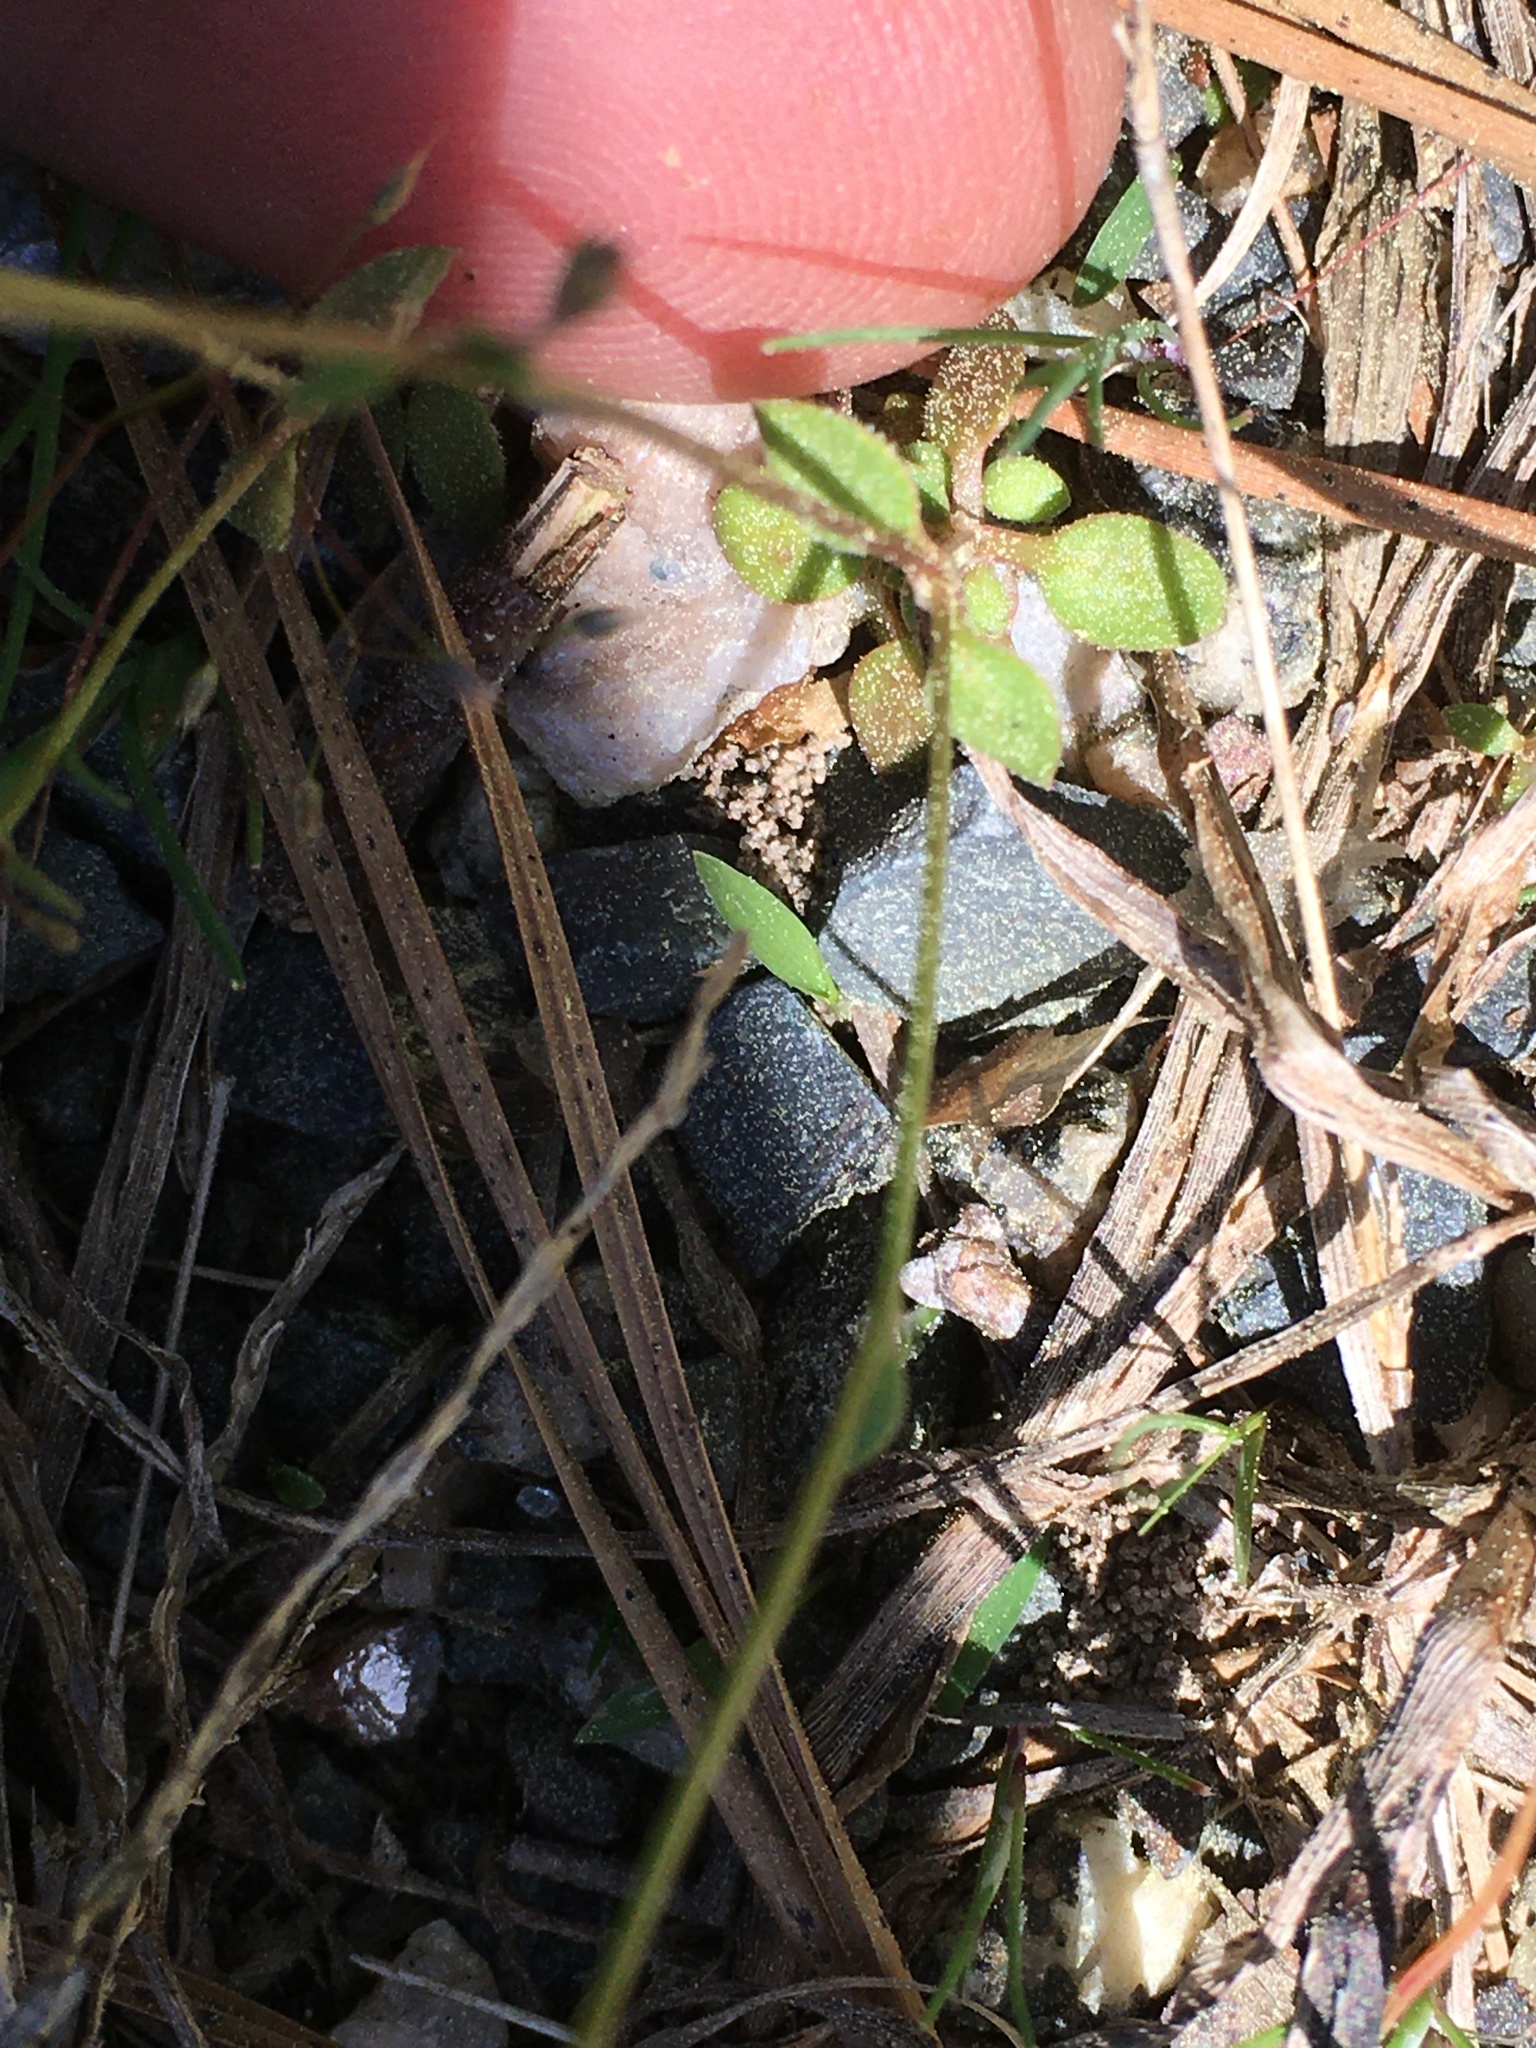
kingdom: Plantae
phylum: Tracheophyta
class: Magnoliopsida
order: Gentianales
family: Rubiaceae
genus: Houstonia
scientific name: Houstonia pusilla
